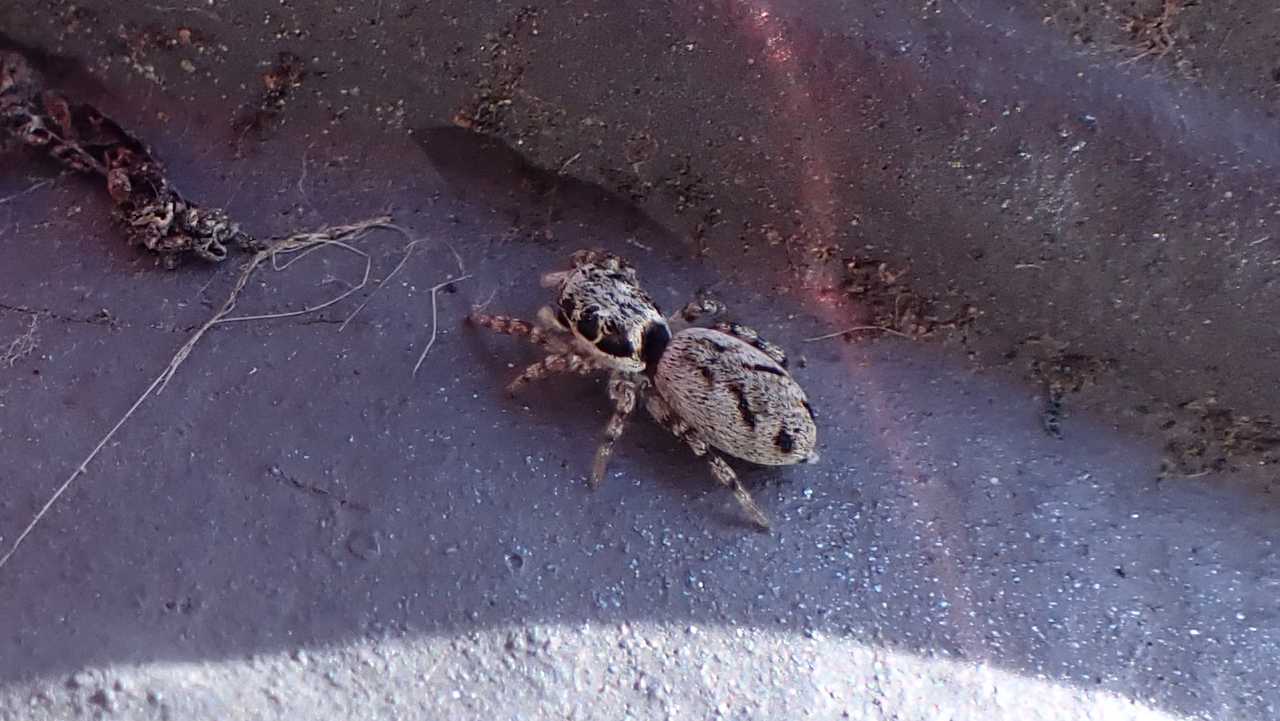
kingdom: Animalia
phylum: Arthropoda
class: Arachnida
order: Araneae
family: Salticidae
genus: Salticus
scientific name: Salticus cingulatus
